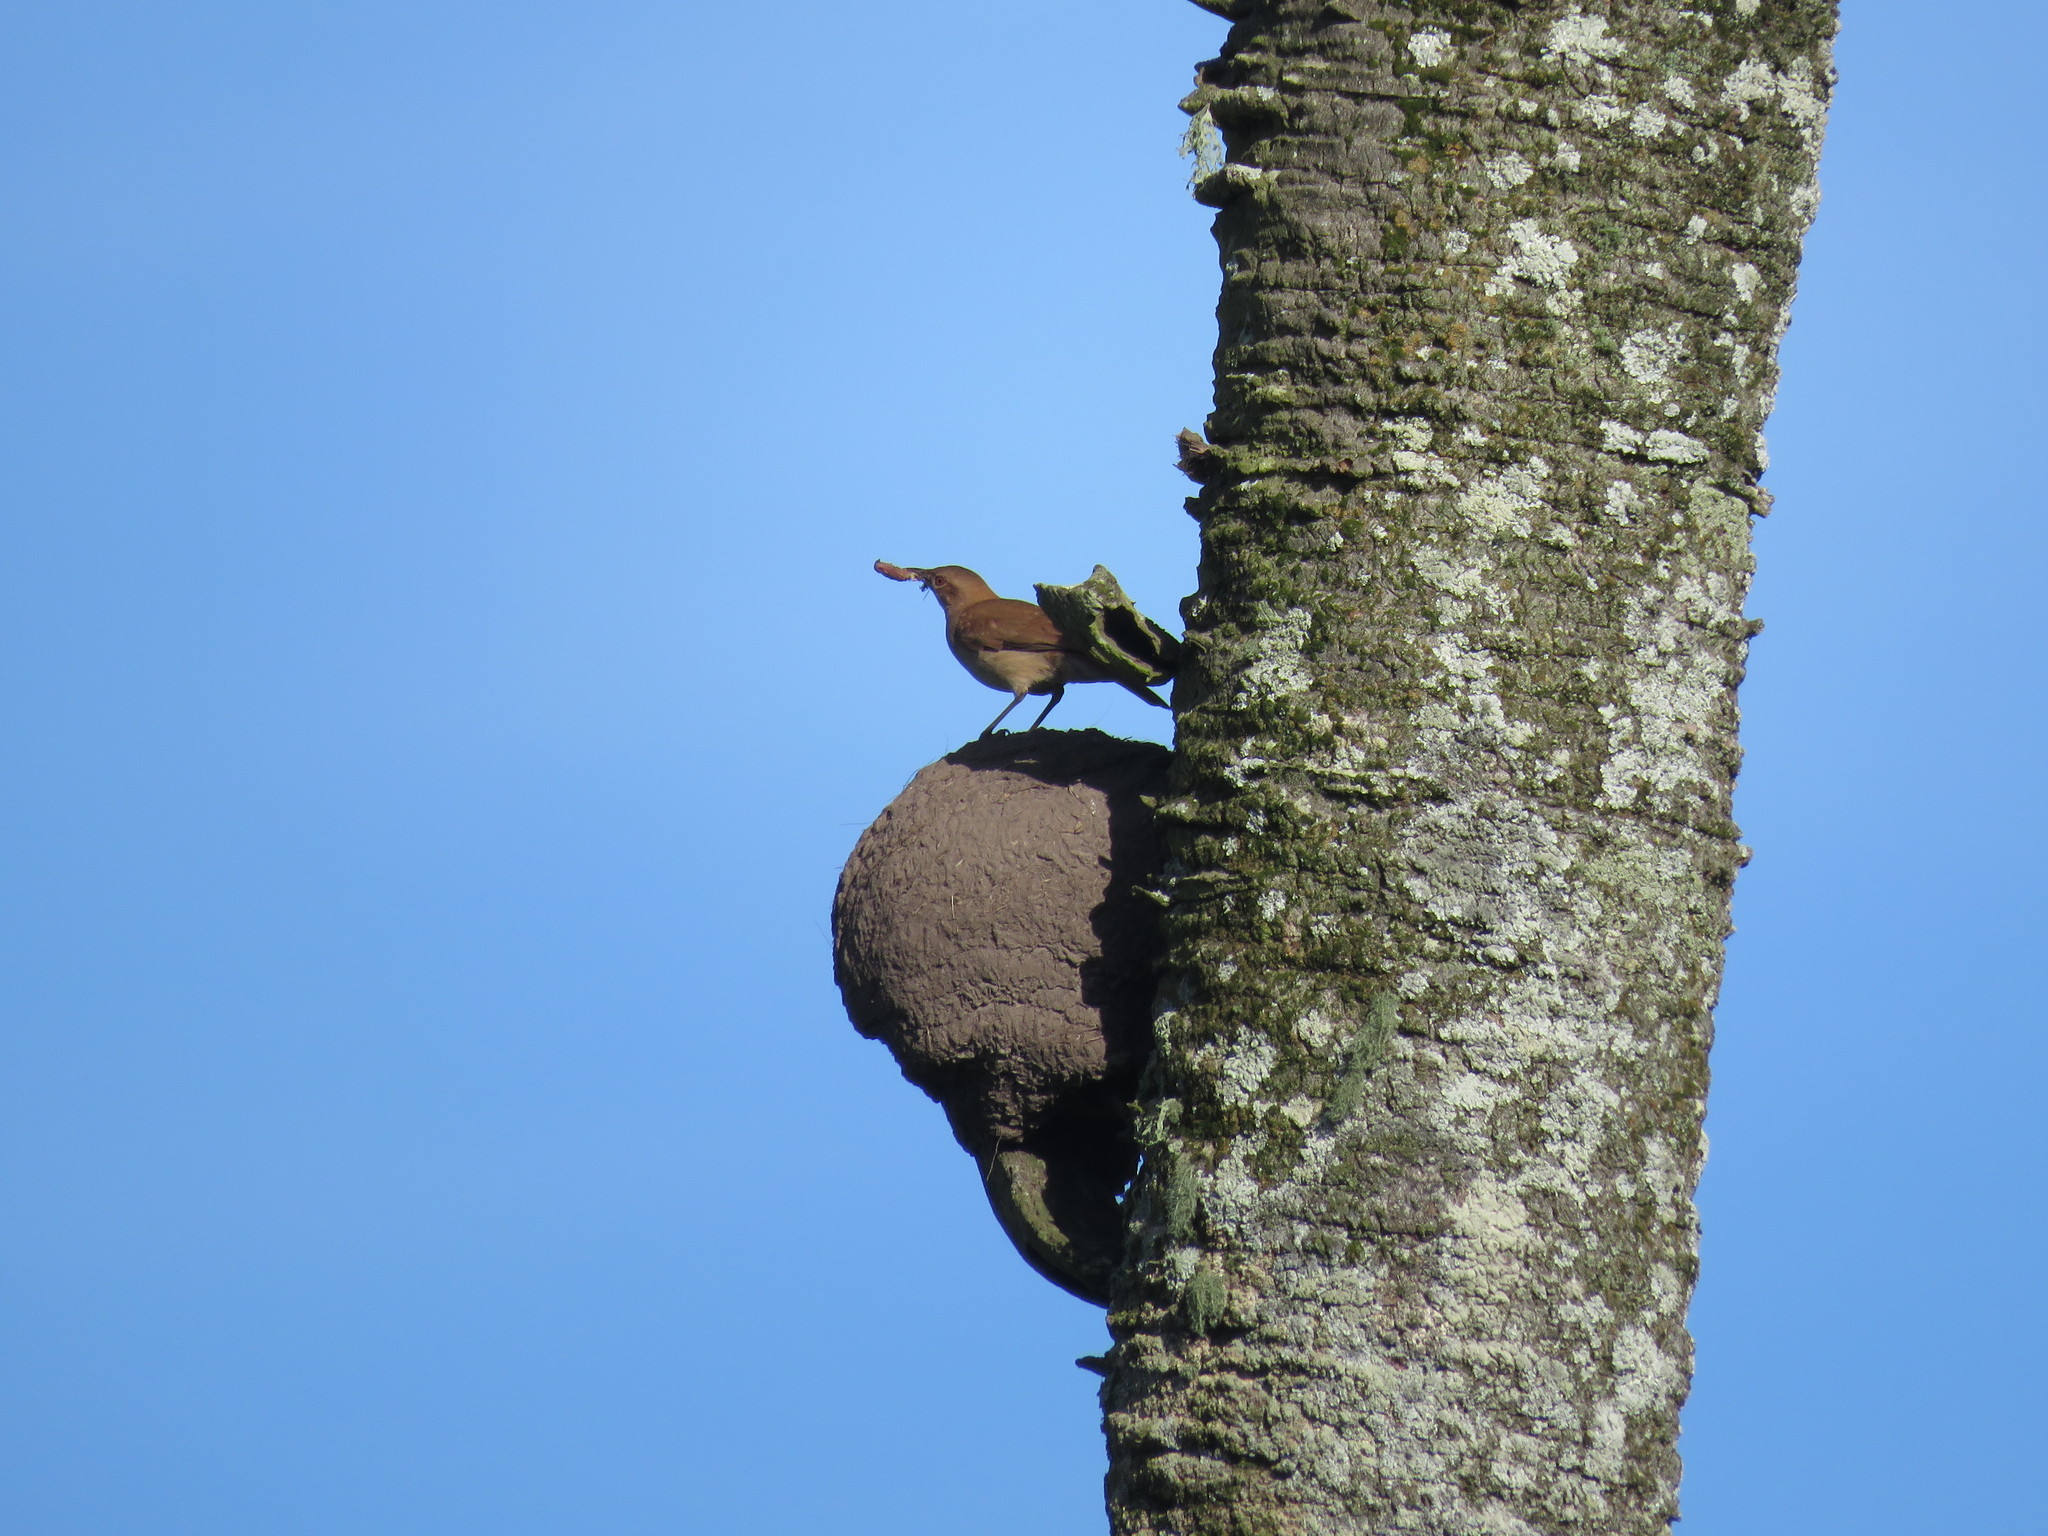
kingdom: Animalia
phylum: Chordata
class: Aves
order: Passeriformes
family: Furnariidae
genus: Furnarius
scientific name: Furnarius rufus
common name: Rufous hornero
